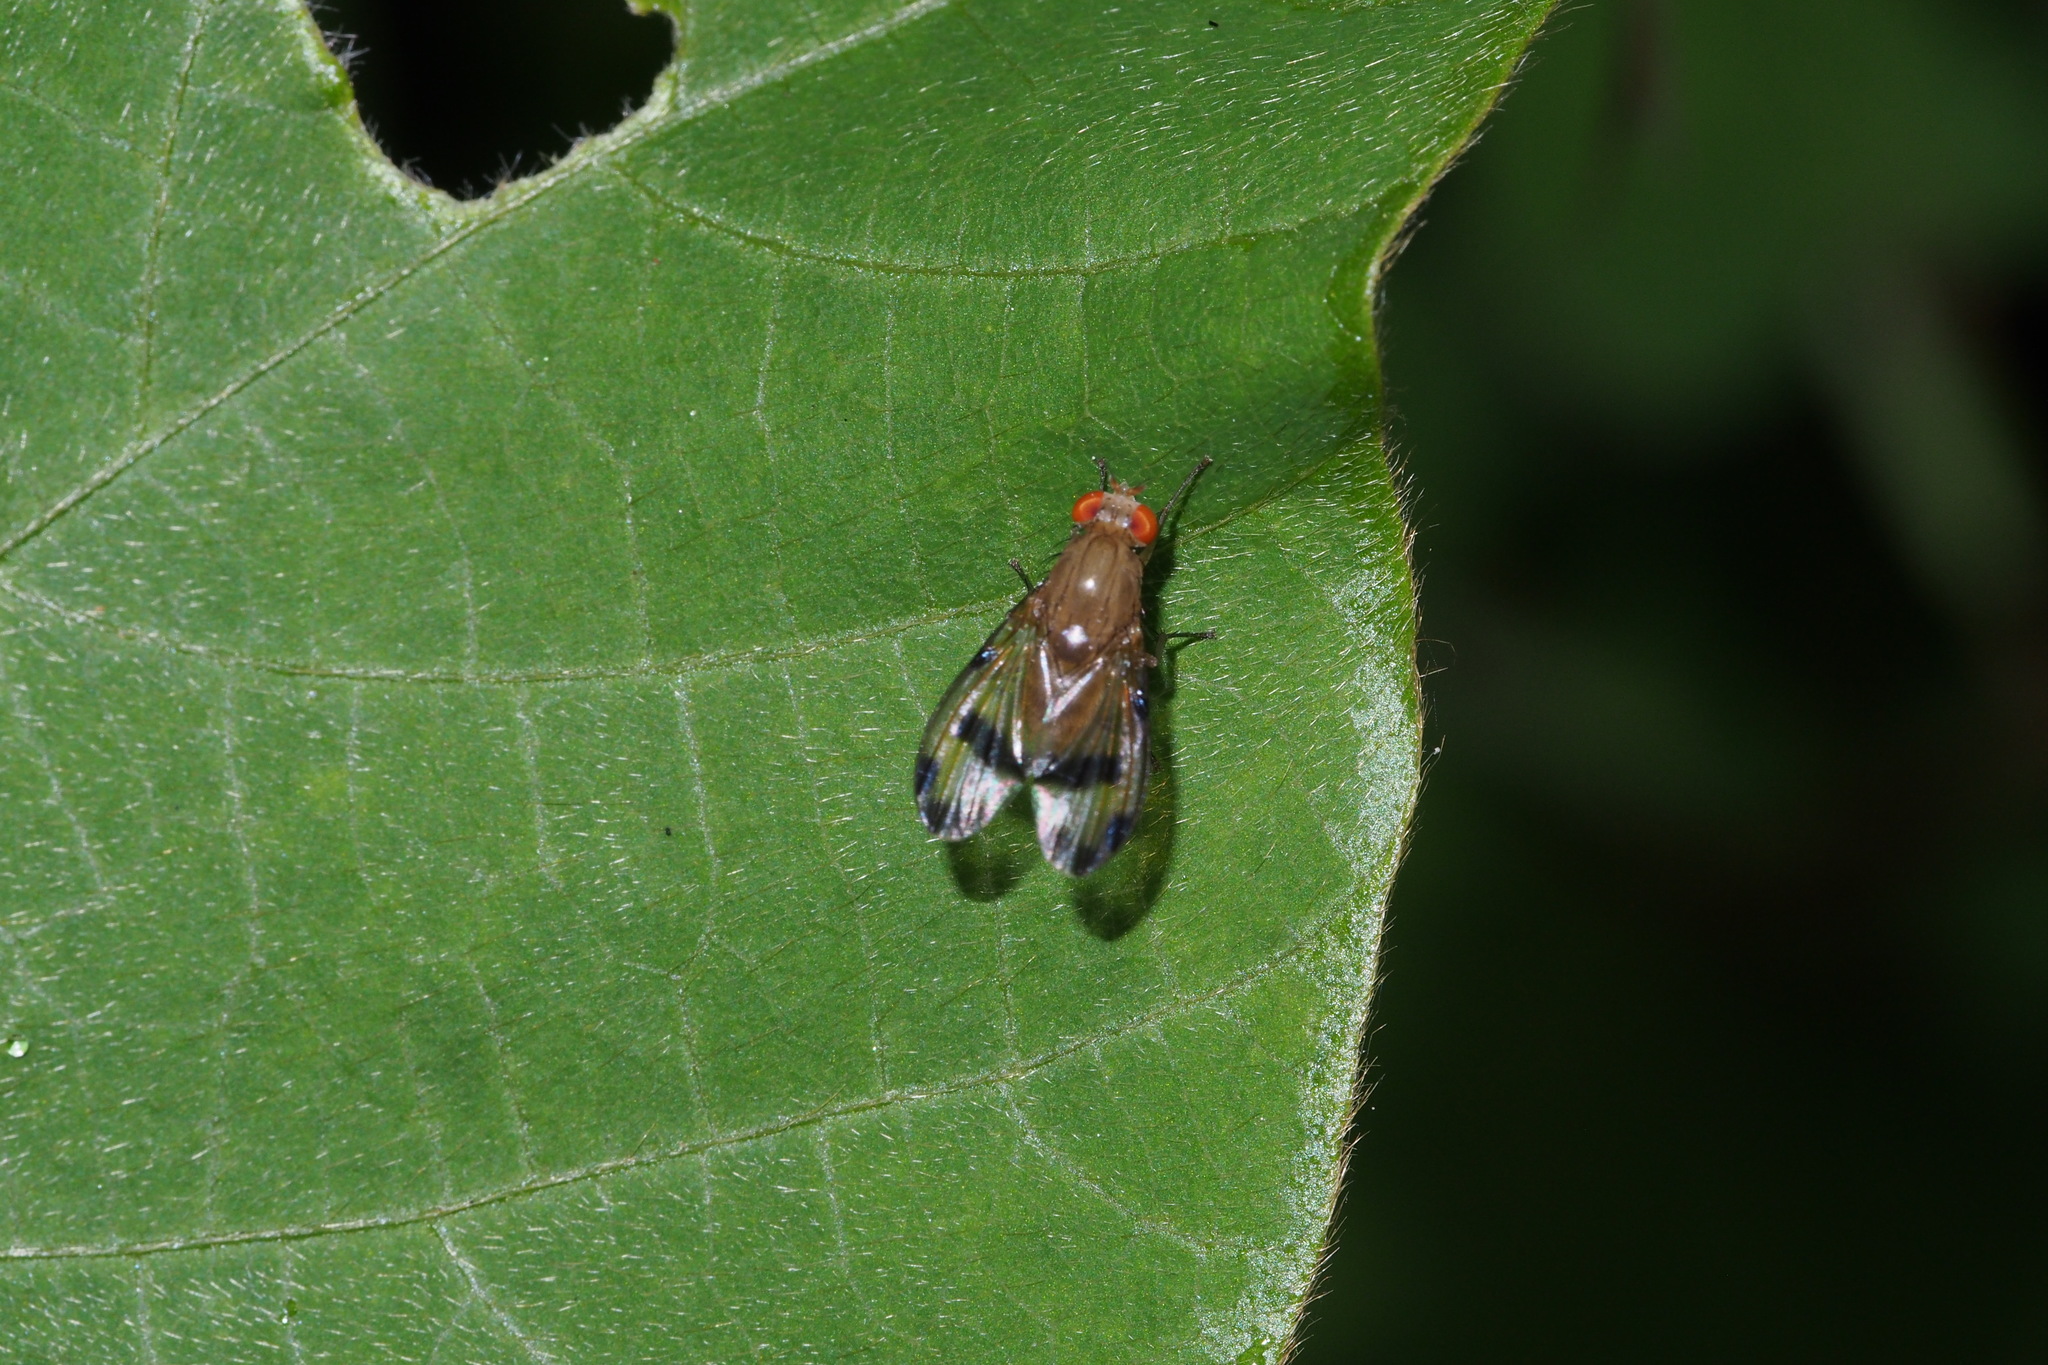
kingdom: Animalia
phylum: Arthropoda
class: Insecta
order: Diptera
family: Lauxaniidae
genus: Homoneura
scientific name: Homoneura
